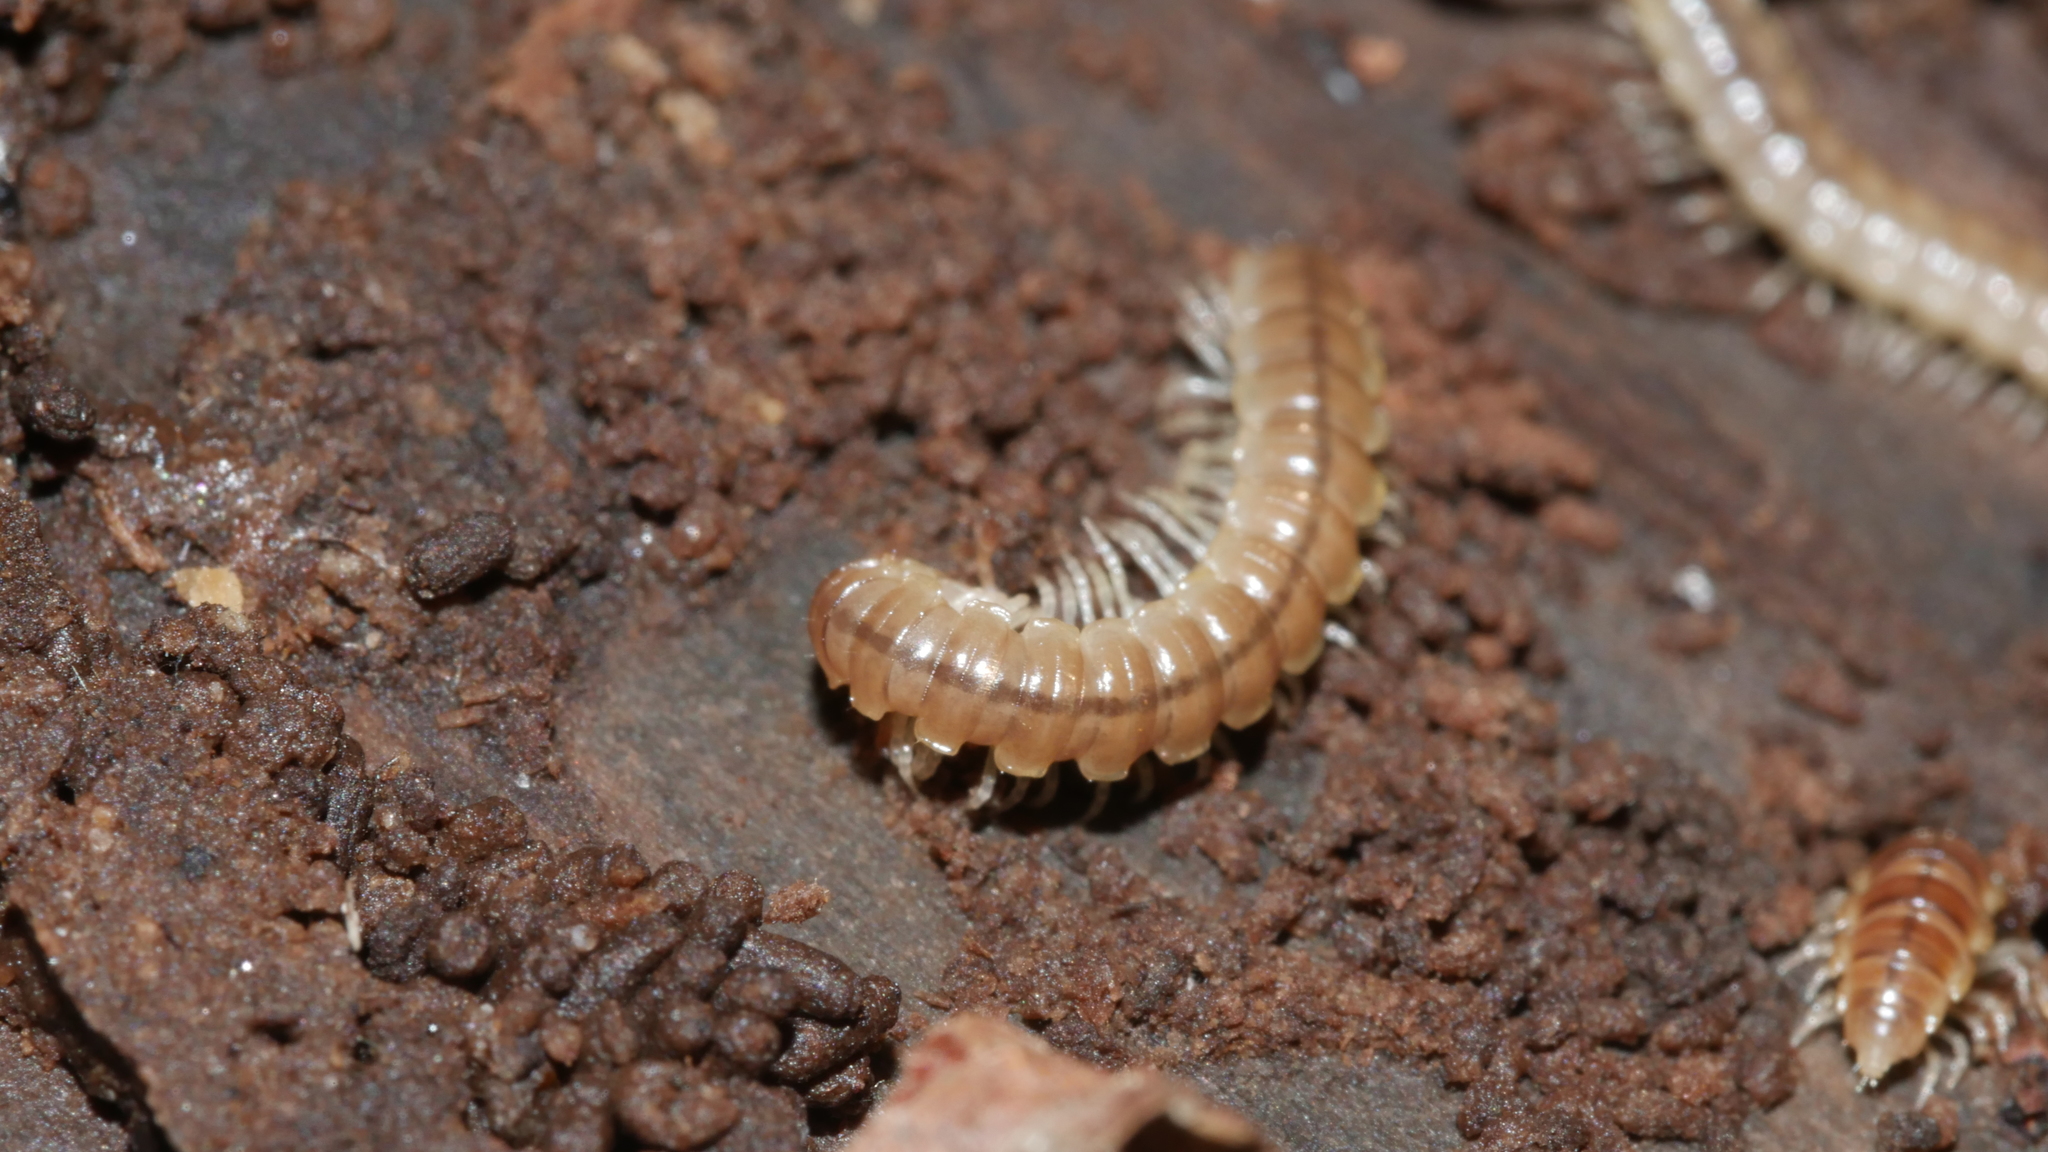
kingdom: Animalia
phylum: Arthropoda
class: Diplopoda
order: Polydesmida
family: Paradoxosomatidae
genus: Oxidus
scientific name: Oxidus gracilis
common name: Greenhouse millipede
